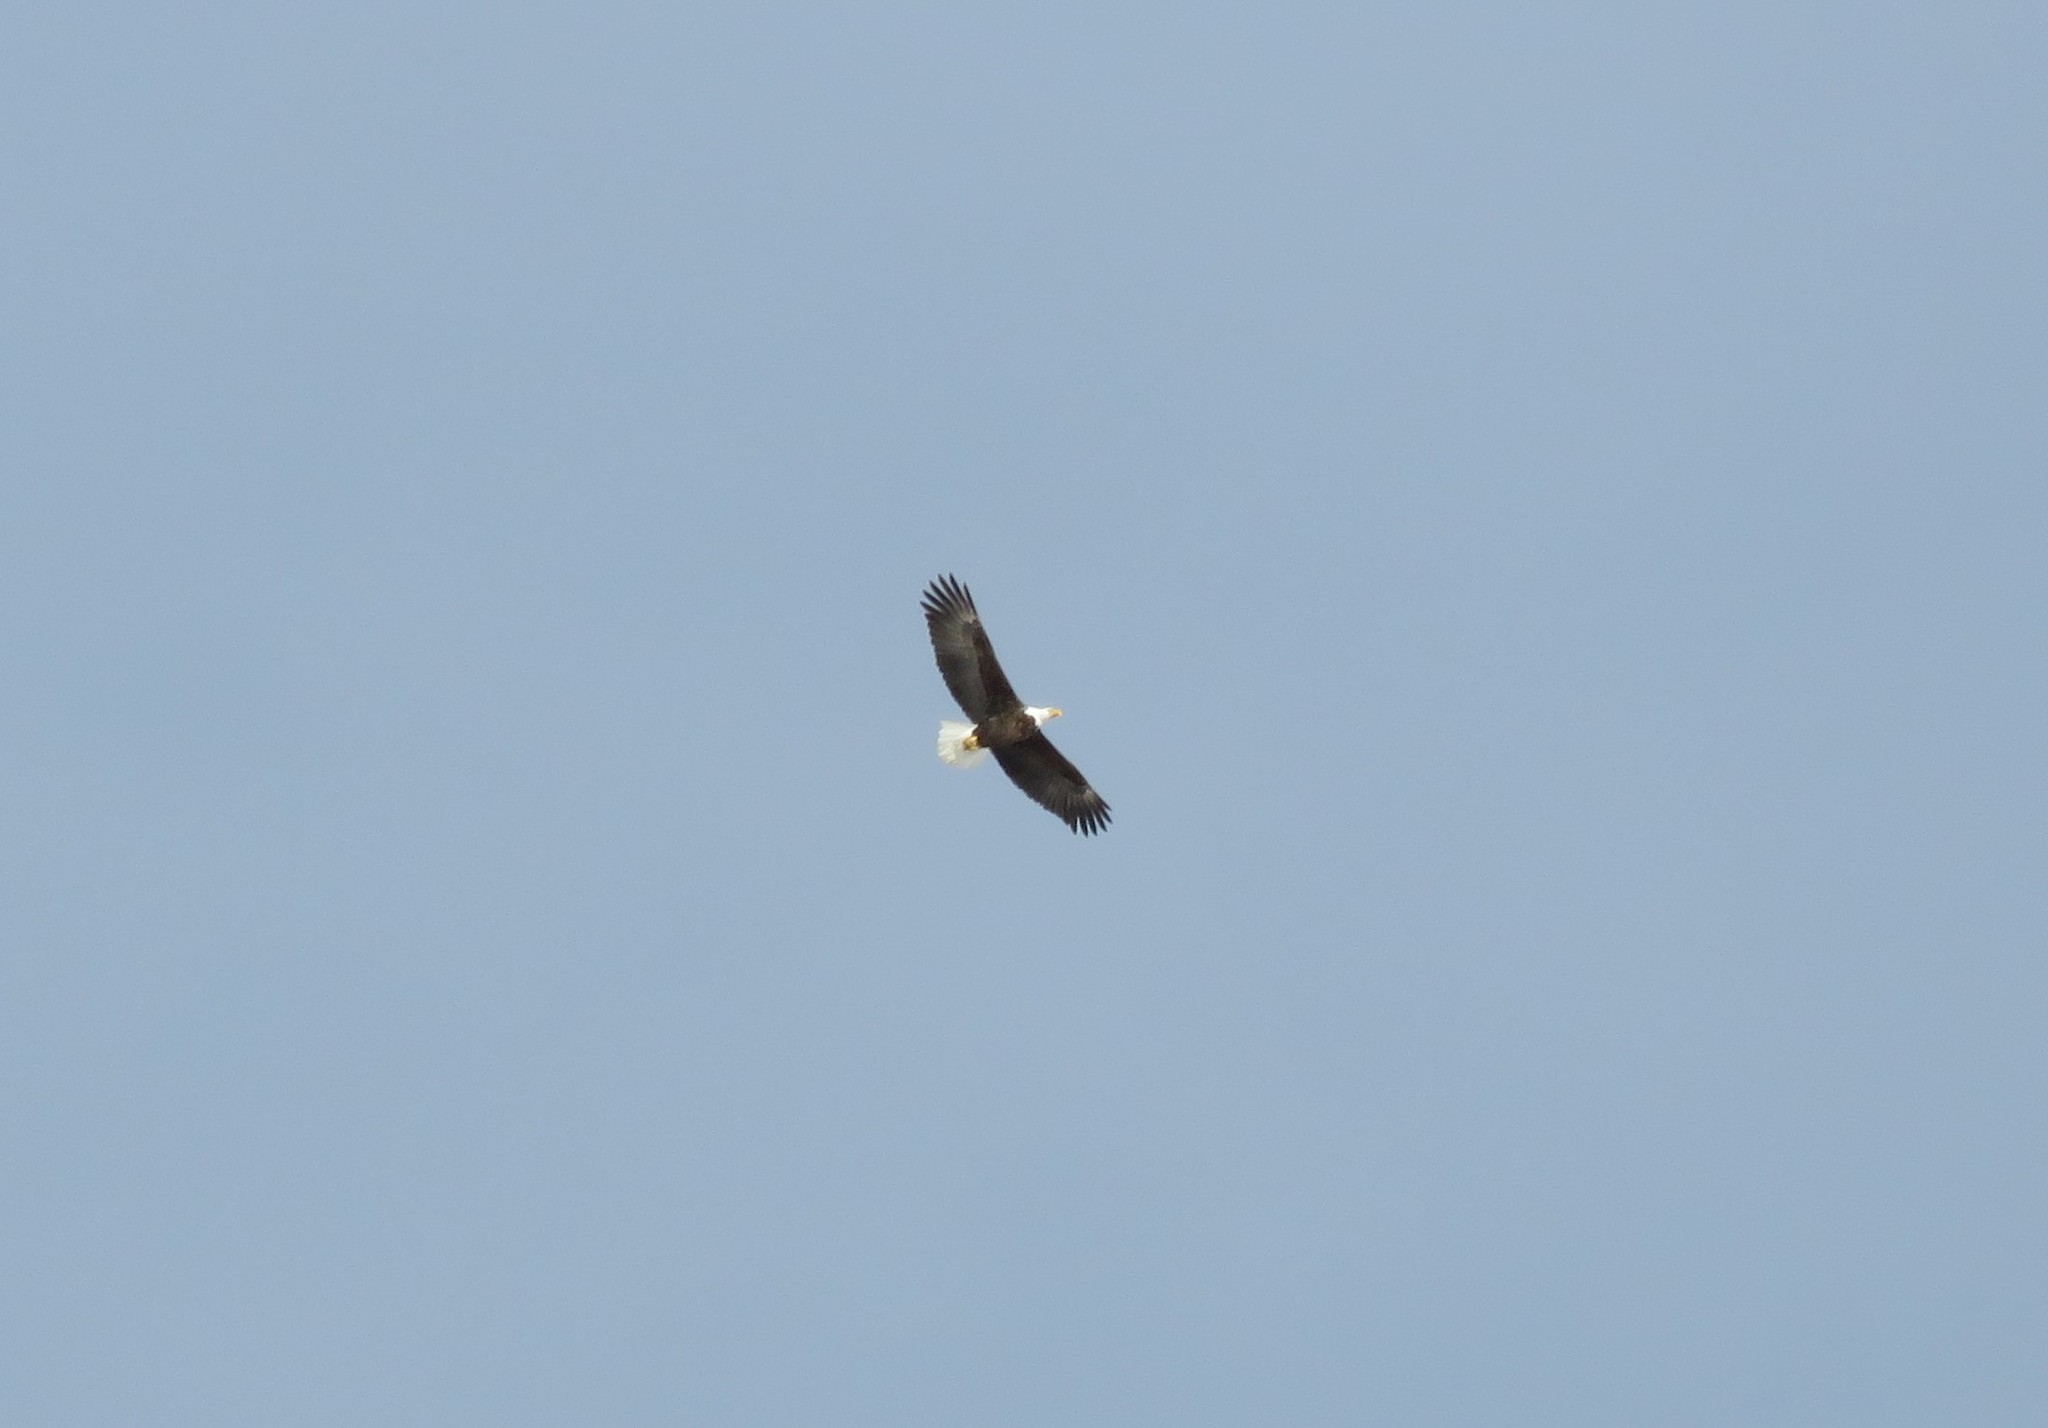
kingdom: Animalia
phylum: Chordata
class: Aves
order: Accipitriformes
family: Accipitridae
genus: Haliaeetus
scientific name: Haliaeetus leucocephalus
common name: Bald eagle
